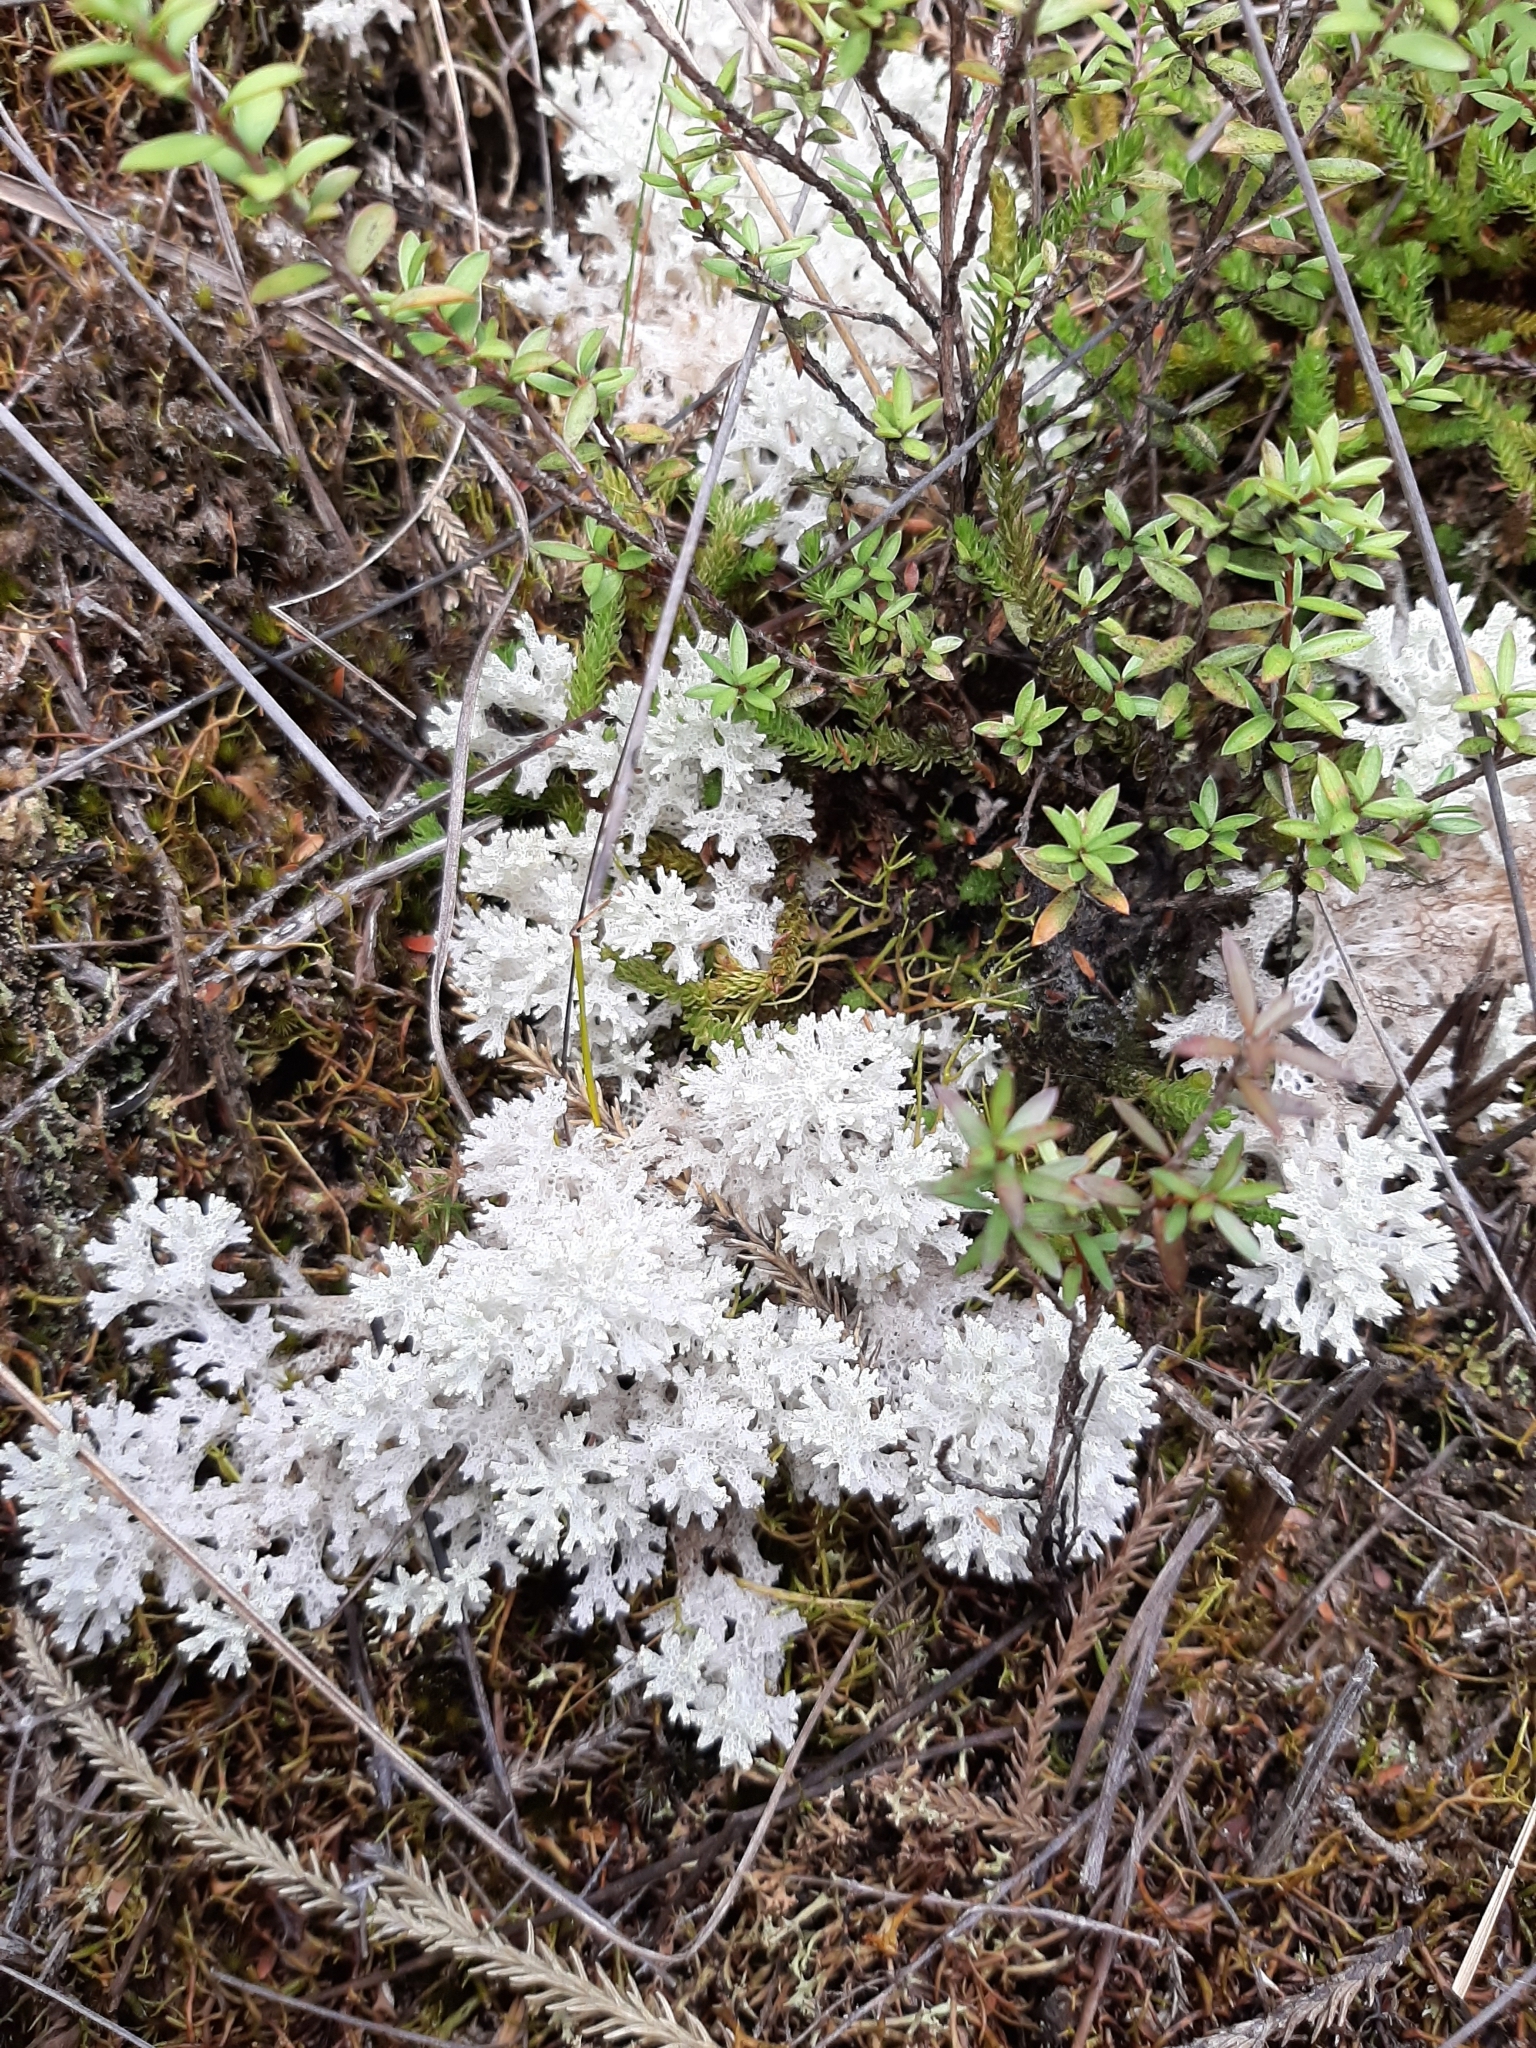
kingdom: Fungi
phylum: Ascomycota
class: Lecanoromycetes
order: Lecanorales
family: Cladoniaceae
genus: Pulchrocladia
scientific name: Pulchrocladia retipora
